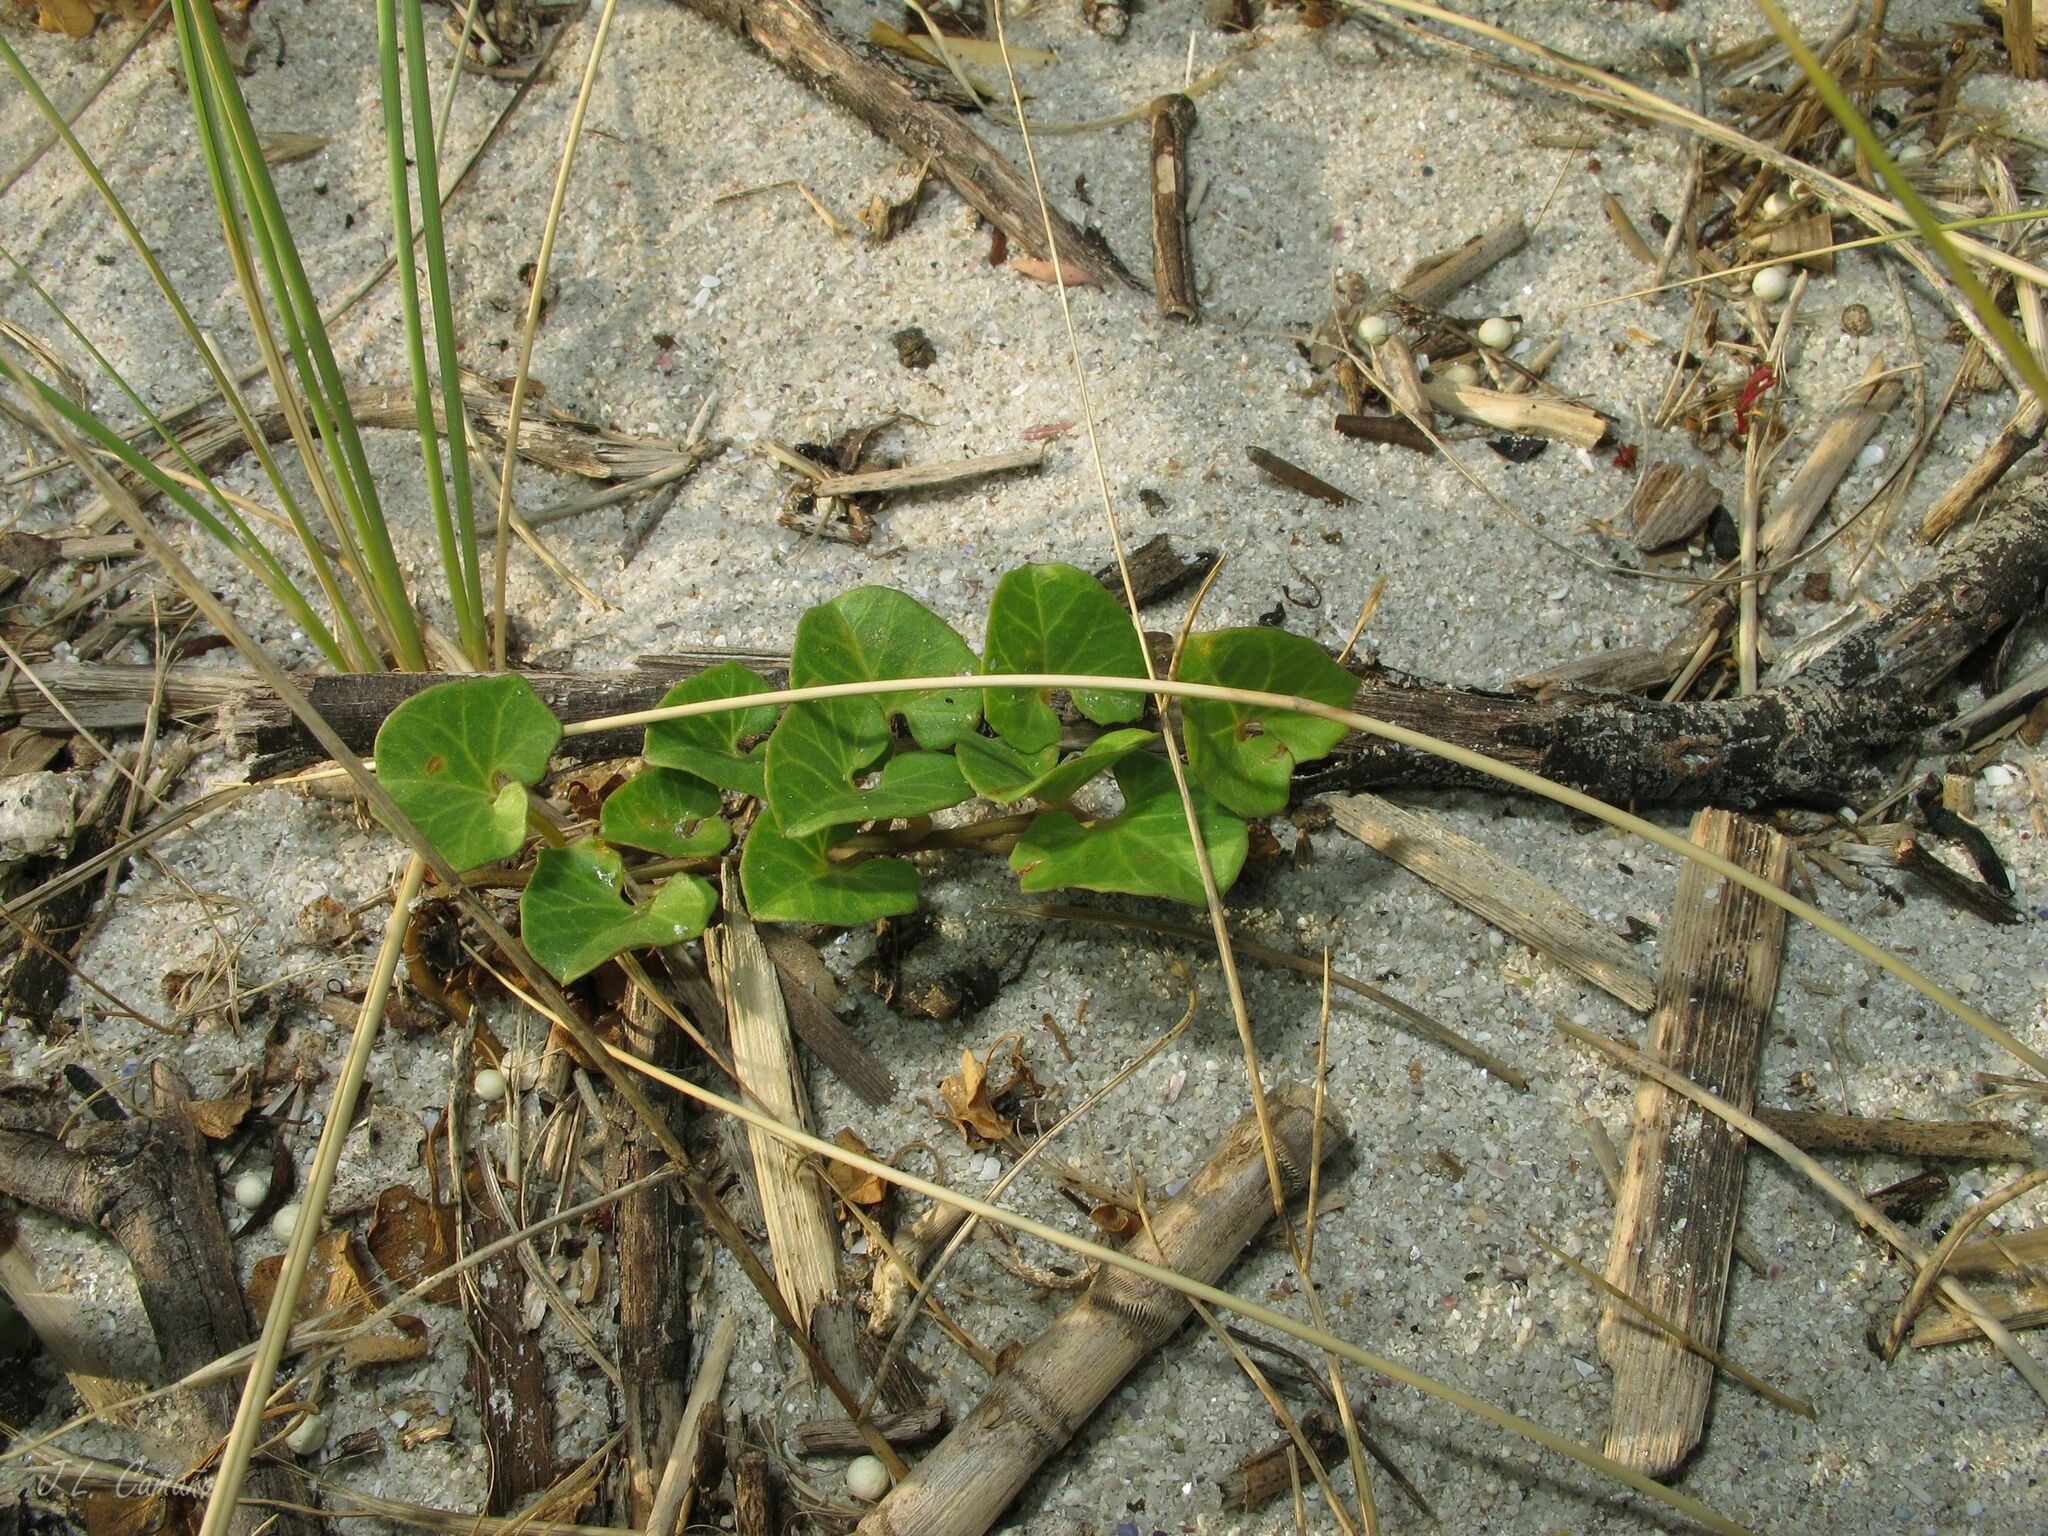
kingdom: Plantae
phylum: Tracheophyta
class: Magnoliopsida
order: Solanales
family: Convolvulaceae
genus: Calystegia
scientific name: Calystegia soldanella
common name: Sea bindweed
